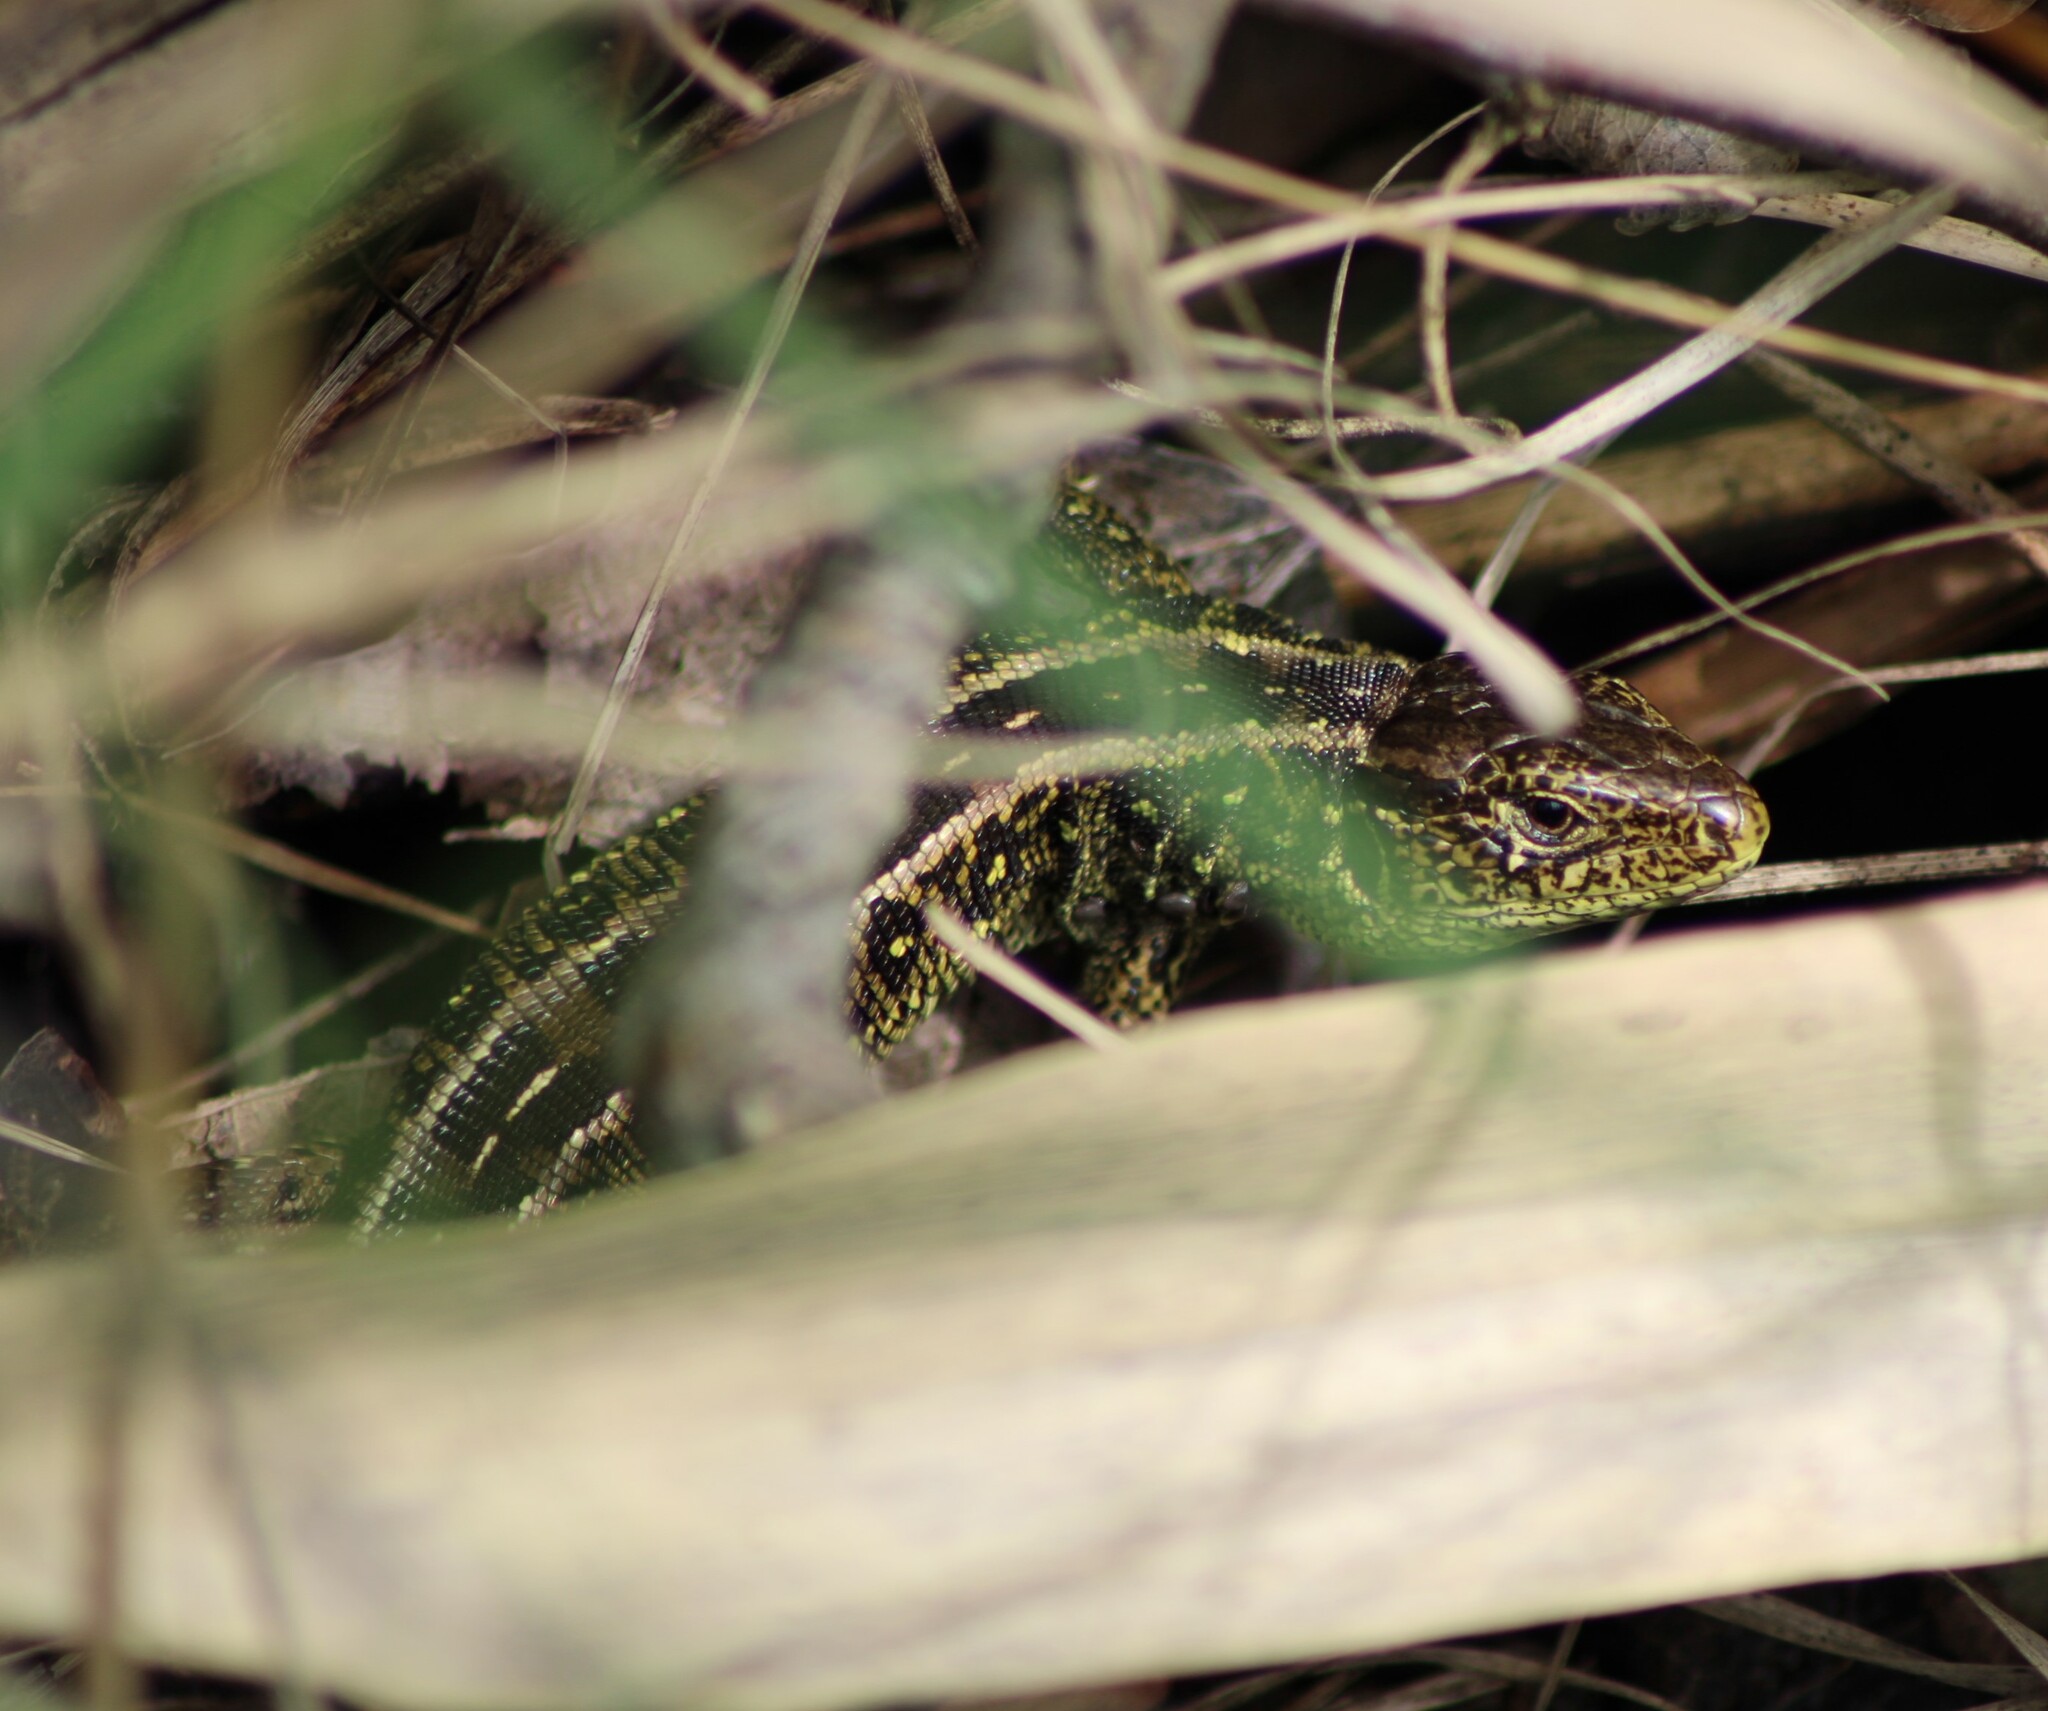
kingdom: Animalia
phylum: Chordata
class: Squamata
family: Lacertidae
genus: Lacerta
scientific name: Lacerta agilis
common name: Sand lizard
